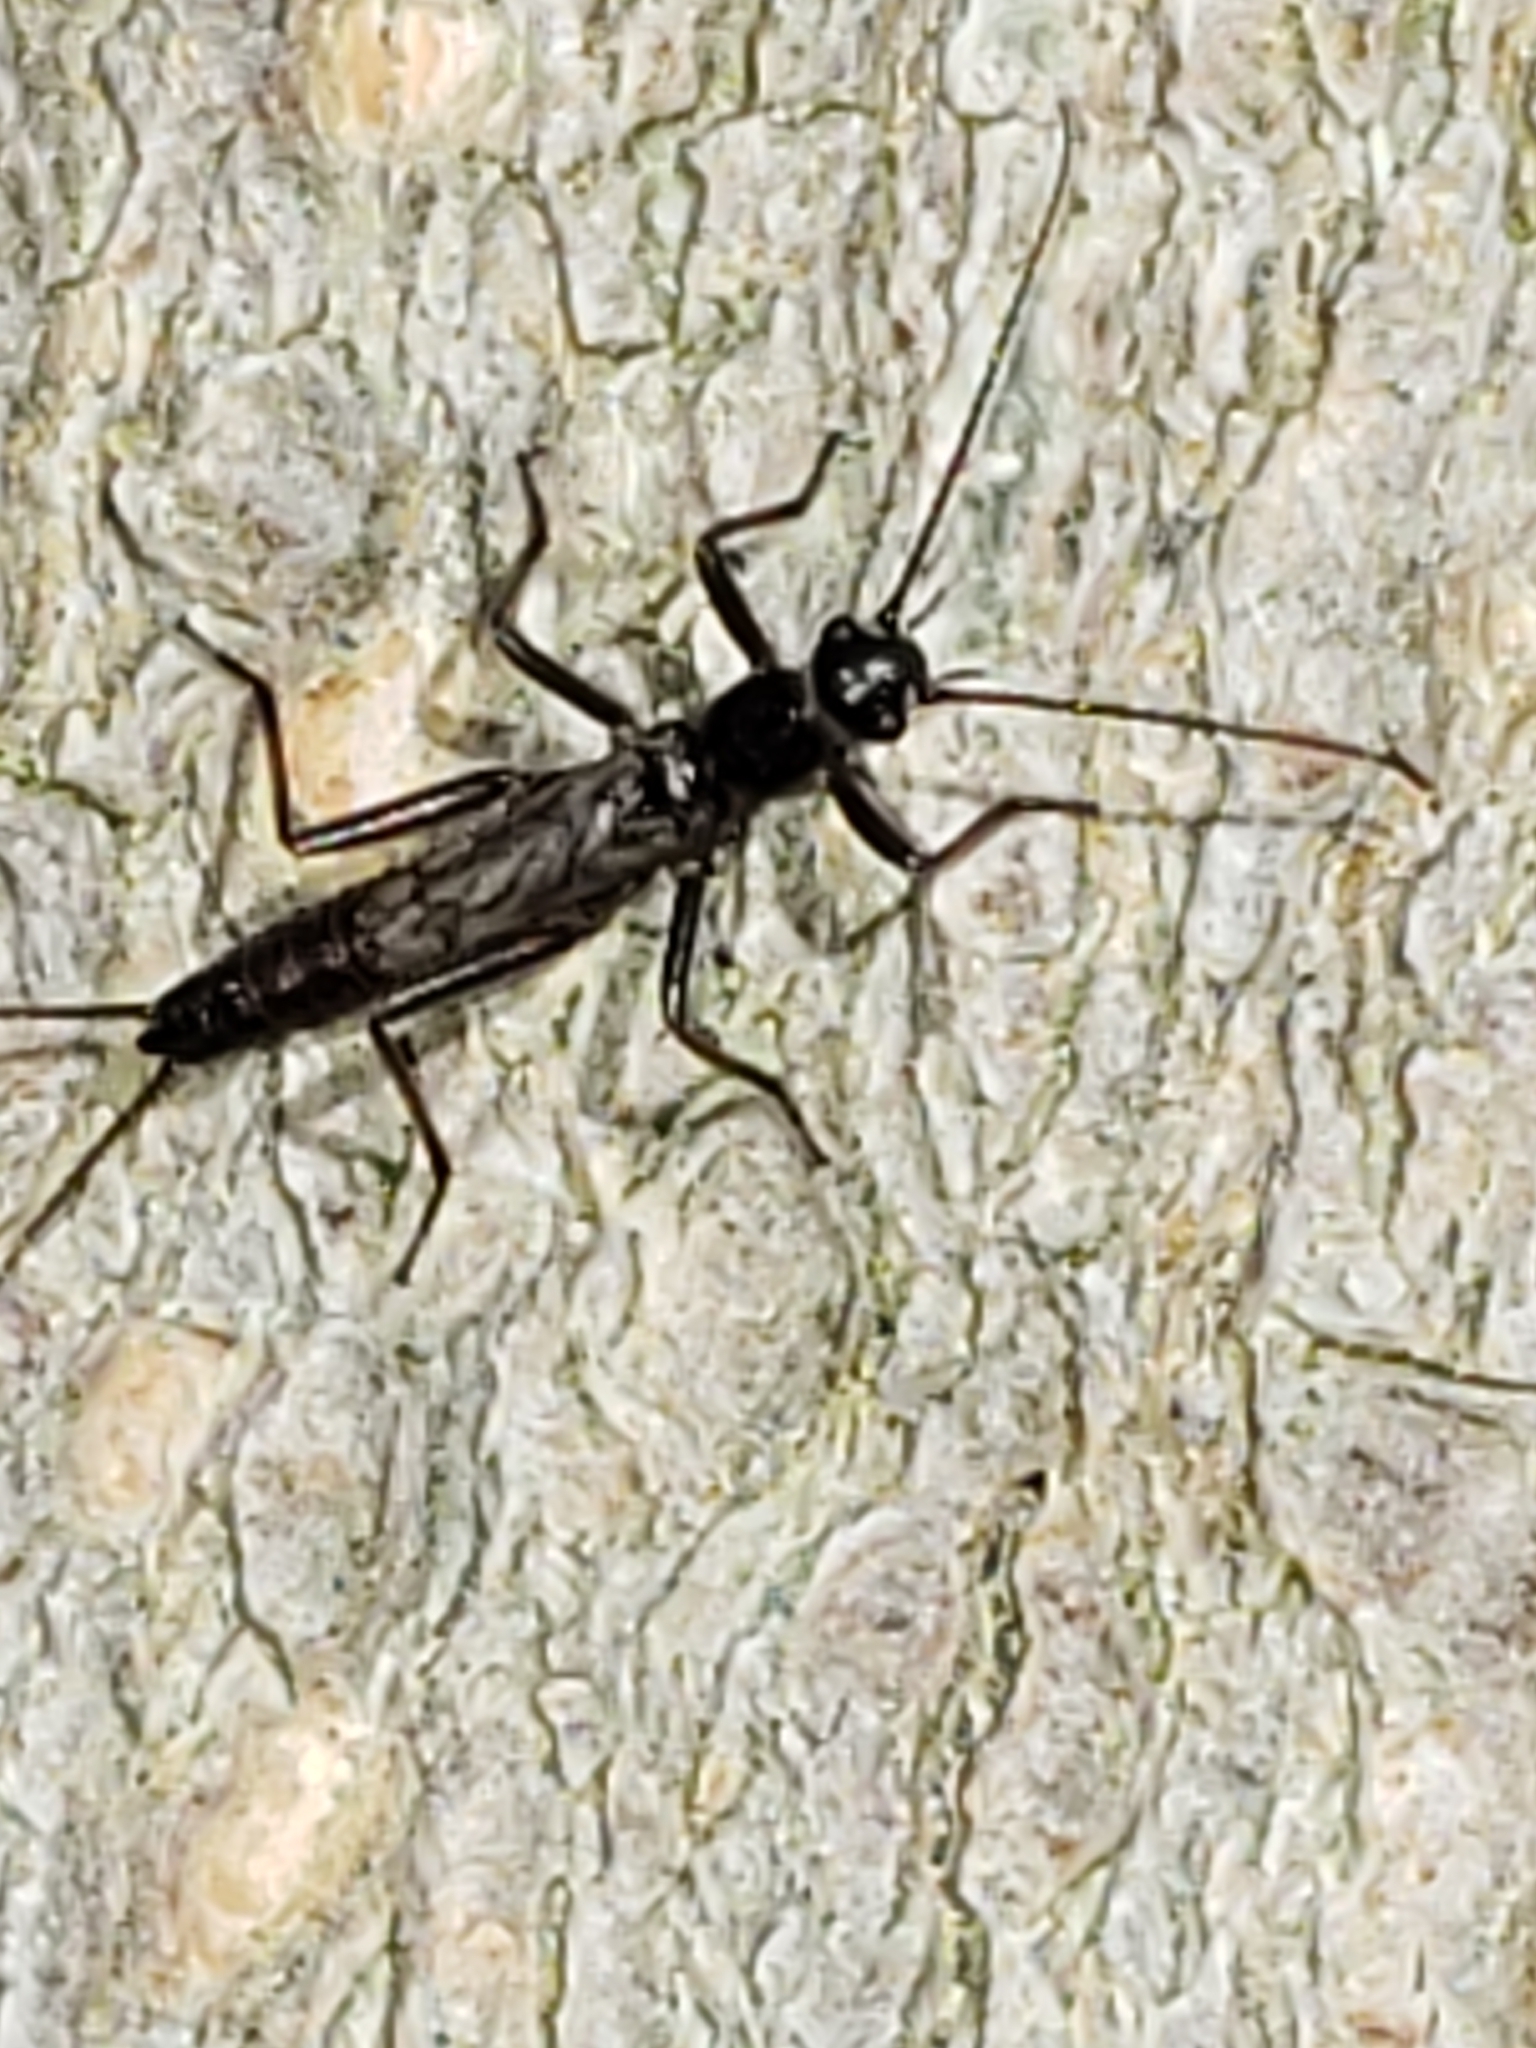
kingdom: Animalia
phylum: Arthropoda
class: Insecta
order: Plecoptera
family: Capniidae
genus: Allocapnia
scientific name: Allocapnia rickeri
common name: Midwest snowfly
